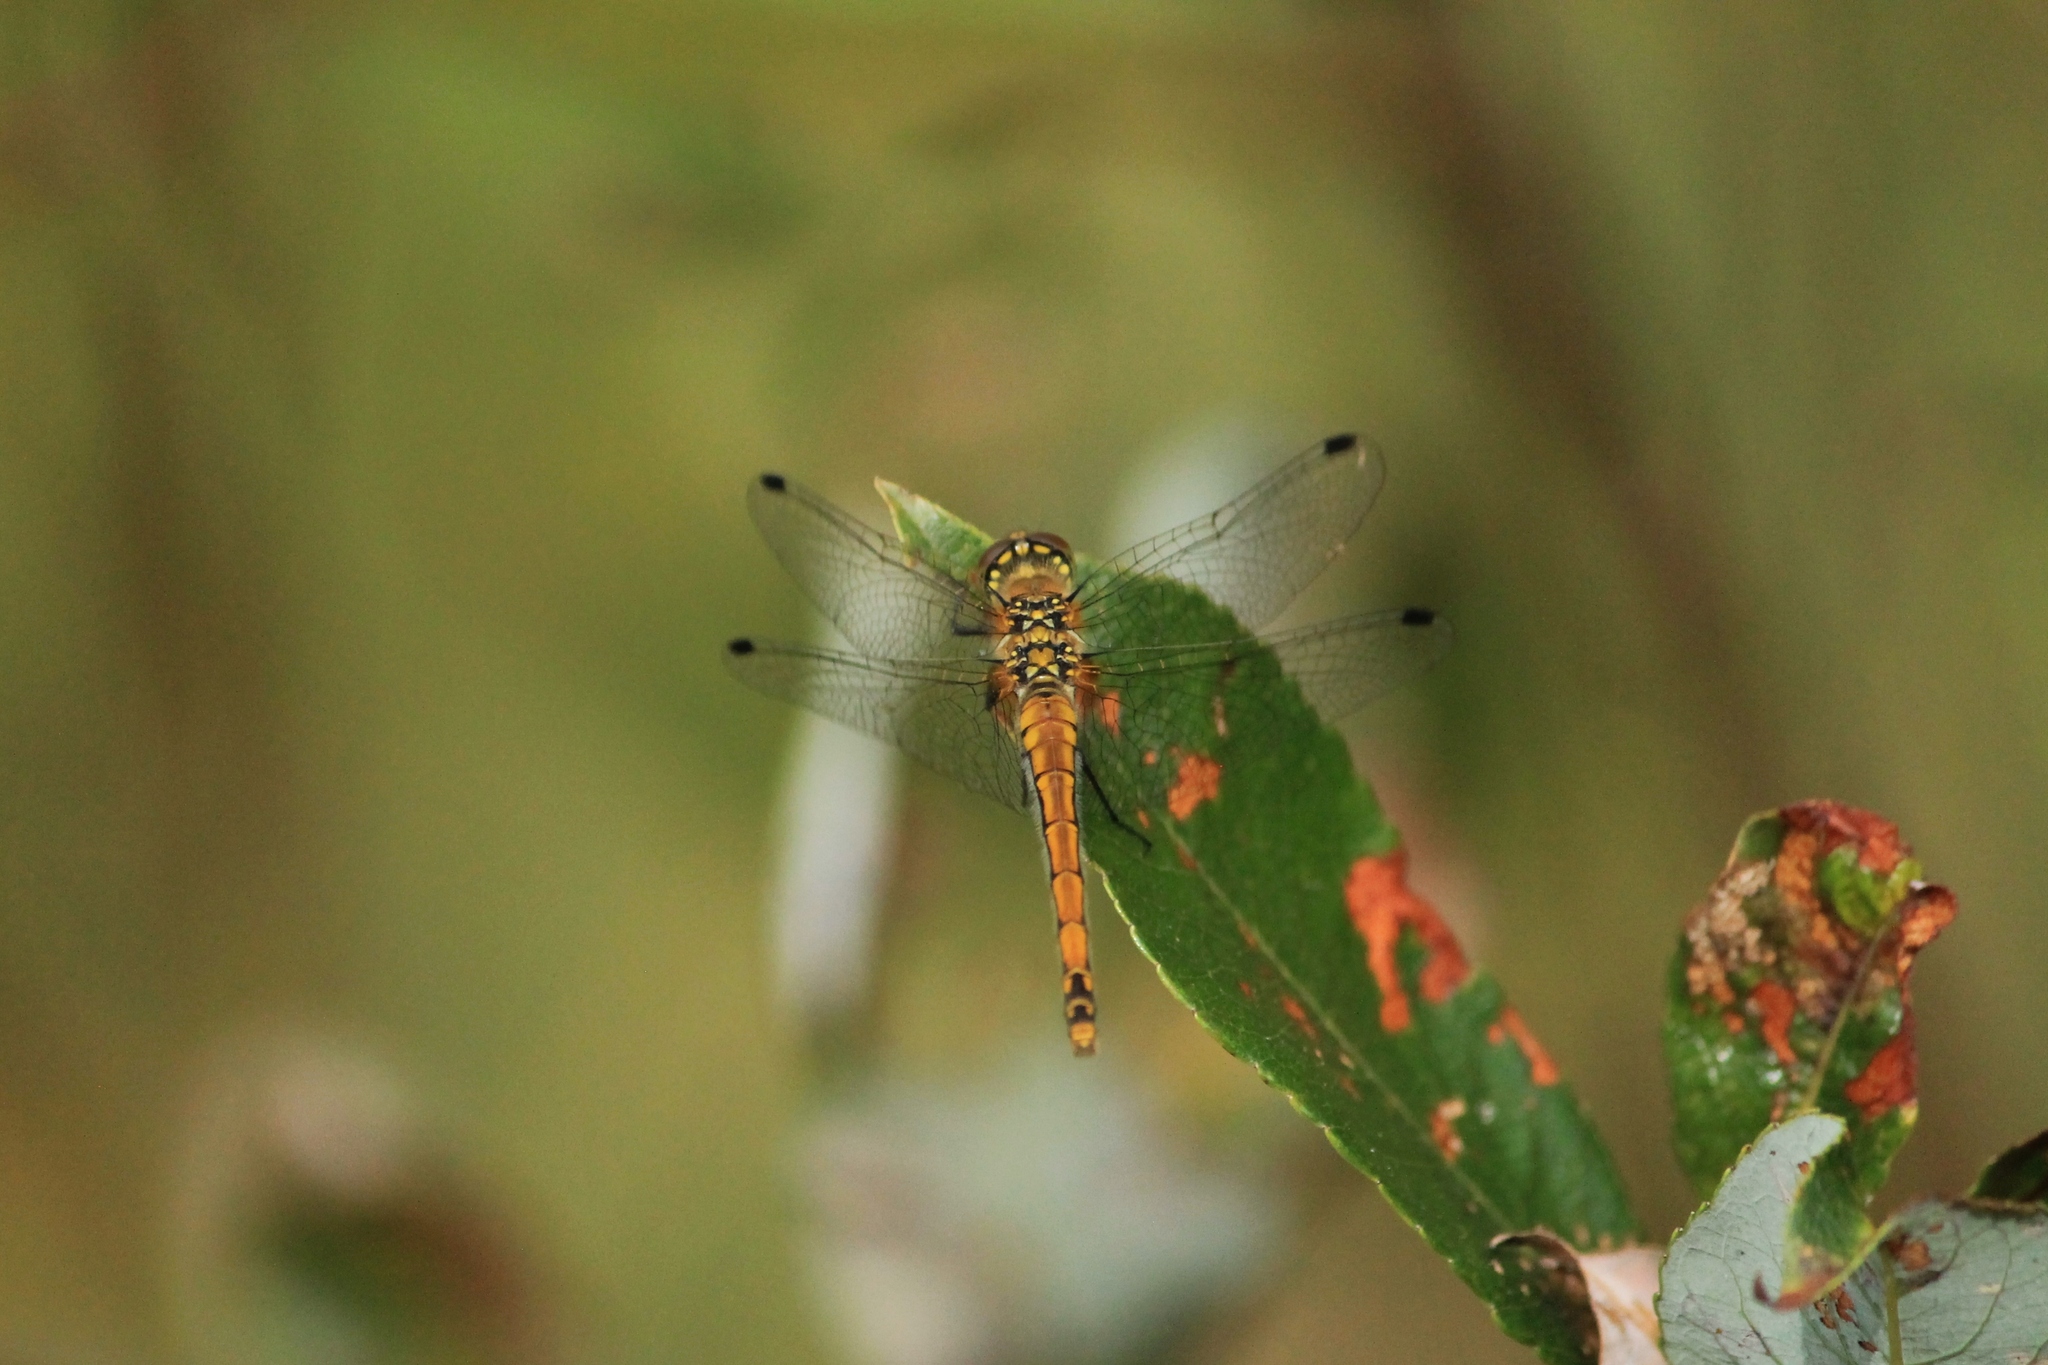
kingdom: Animalia
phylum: Arthropoda
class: Insecta
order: Odonata
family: Libellulidae
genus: Sympetrum
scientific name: Sympetrum danae
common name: Black darter
